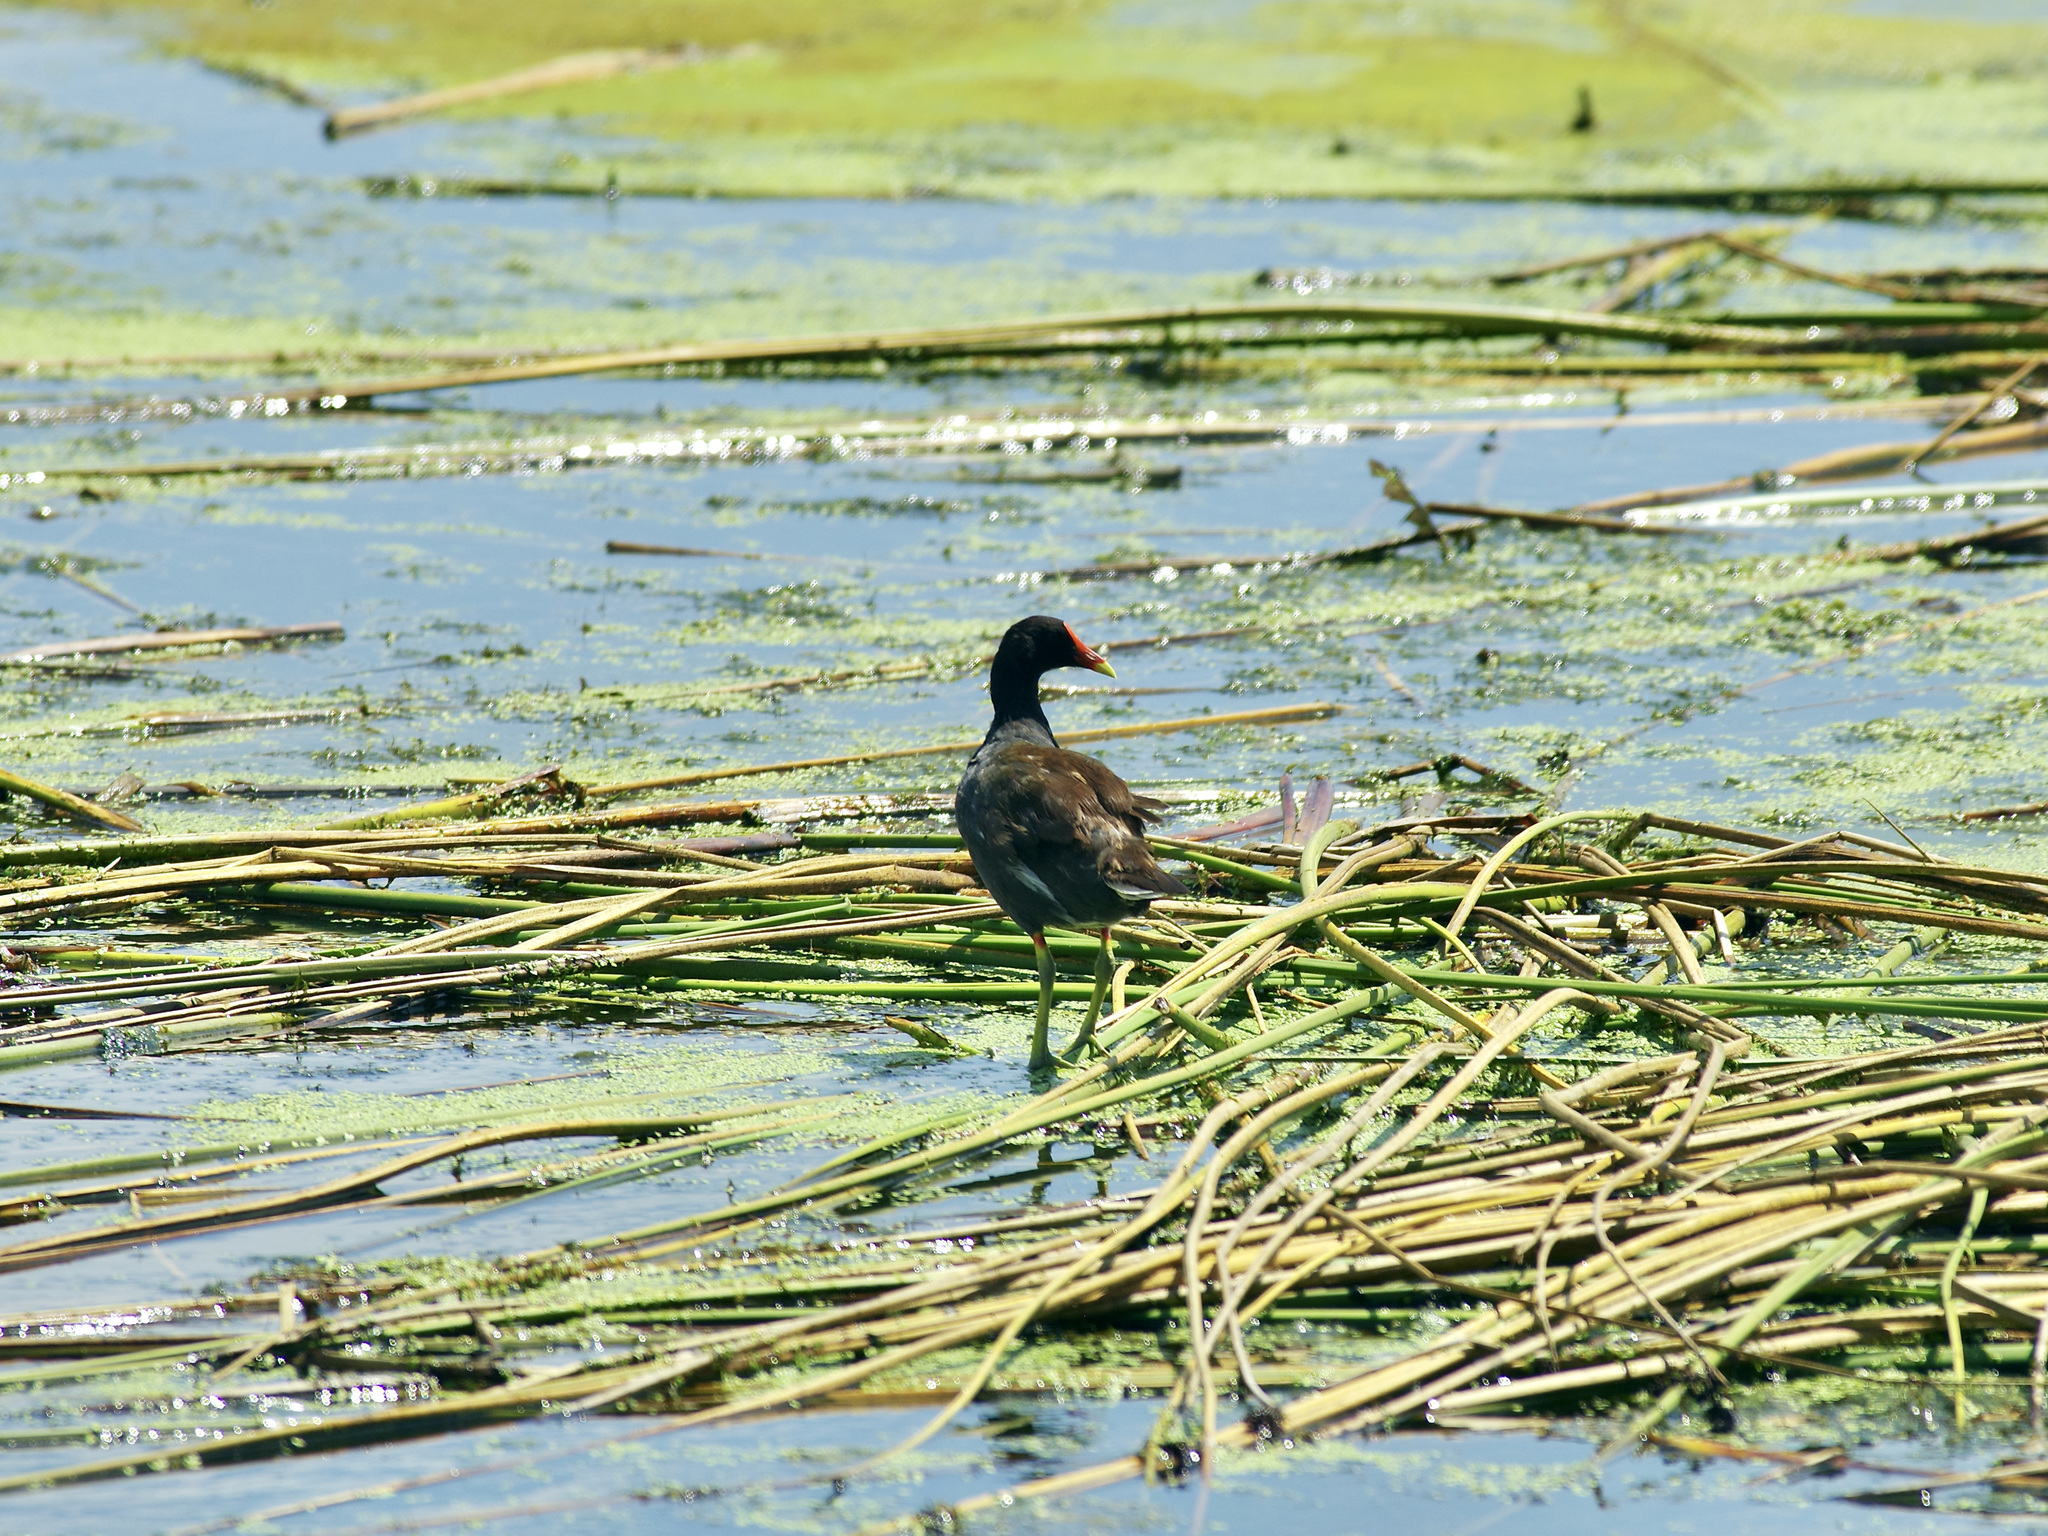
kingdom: Animalia
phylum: Chordata
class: Aves
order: Gruiformes
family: Rallidae
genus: Gallinula
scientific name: Gallinula chloropus
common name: Common moorhen
